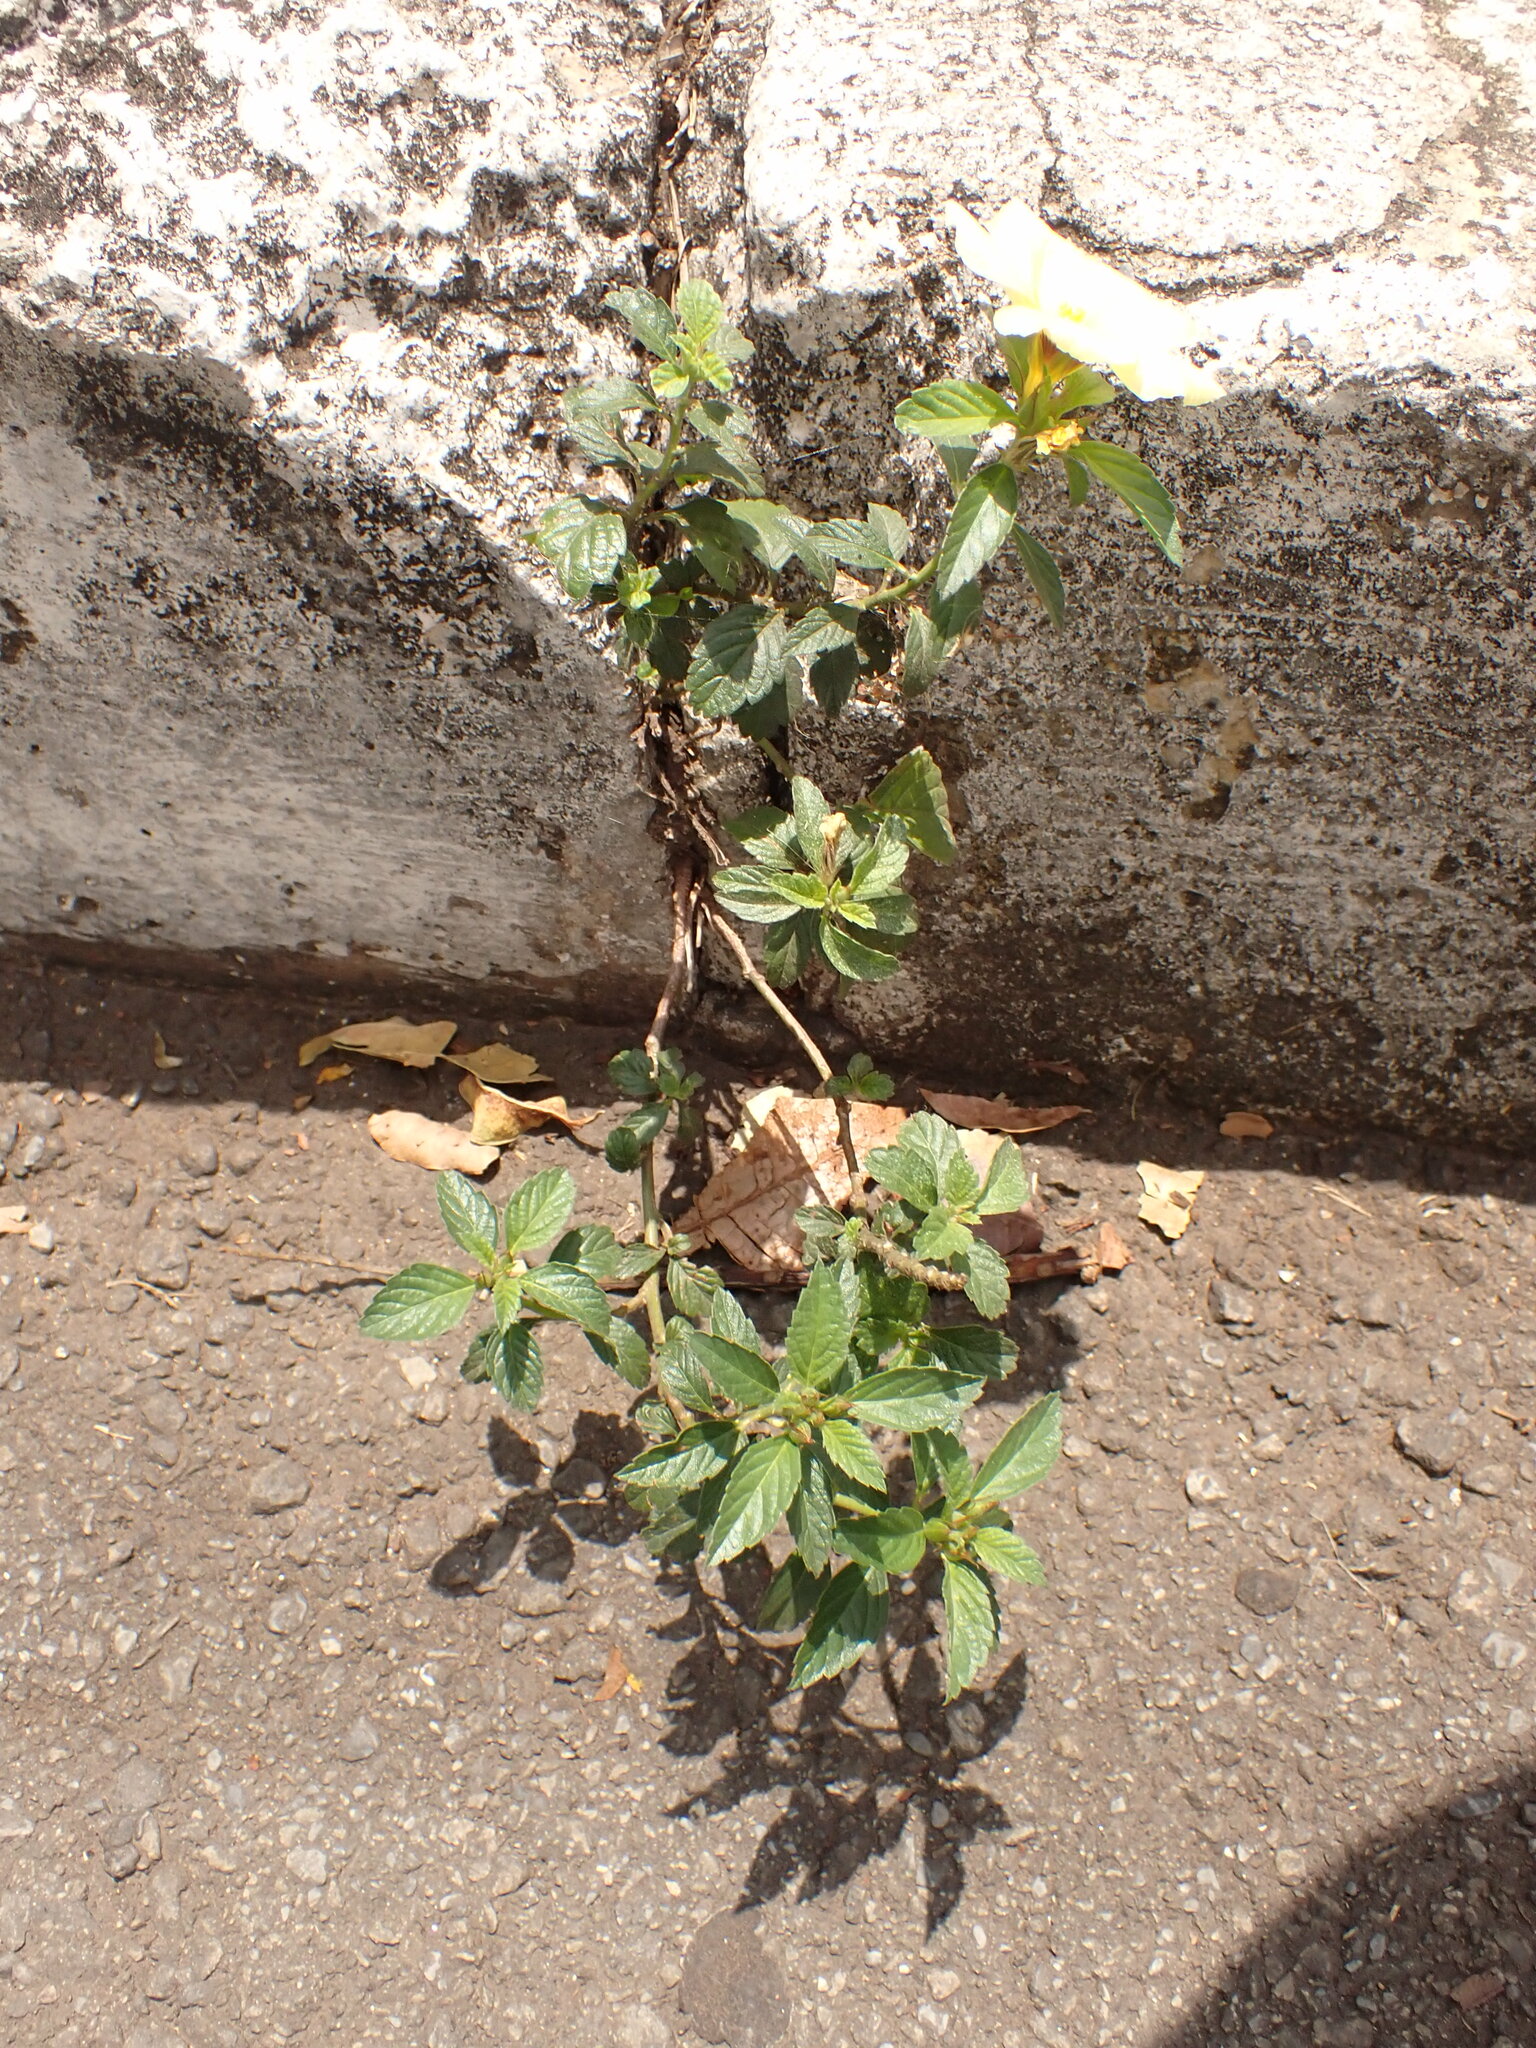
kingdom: Plantae
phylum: Tracheophyta
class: Magnoliopsida
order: Malpighiales
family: Turneraceae
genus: Turnera
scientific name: Turnera subulata
